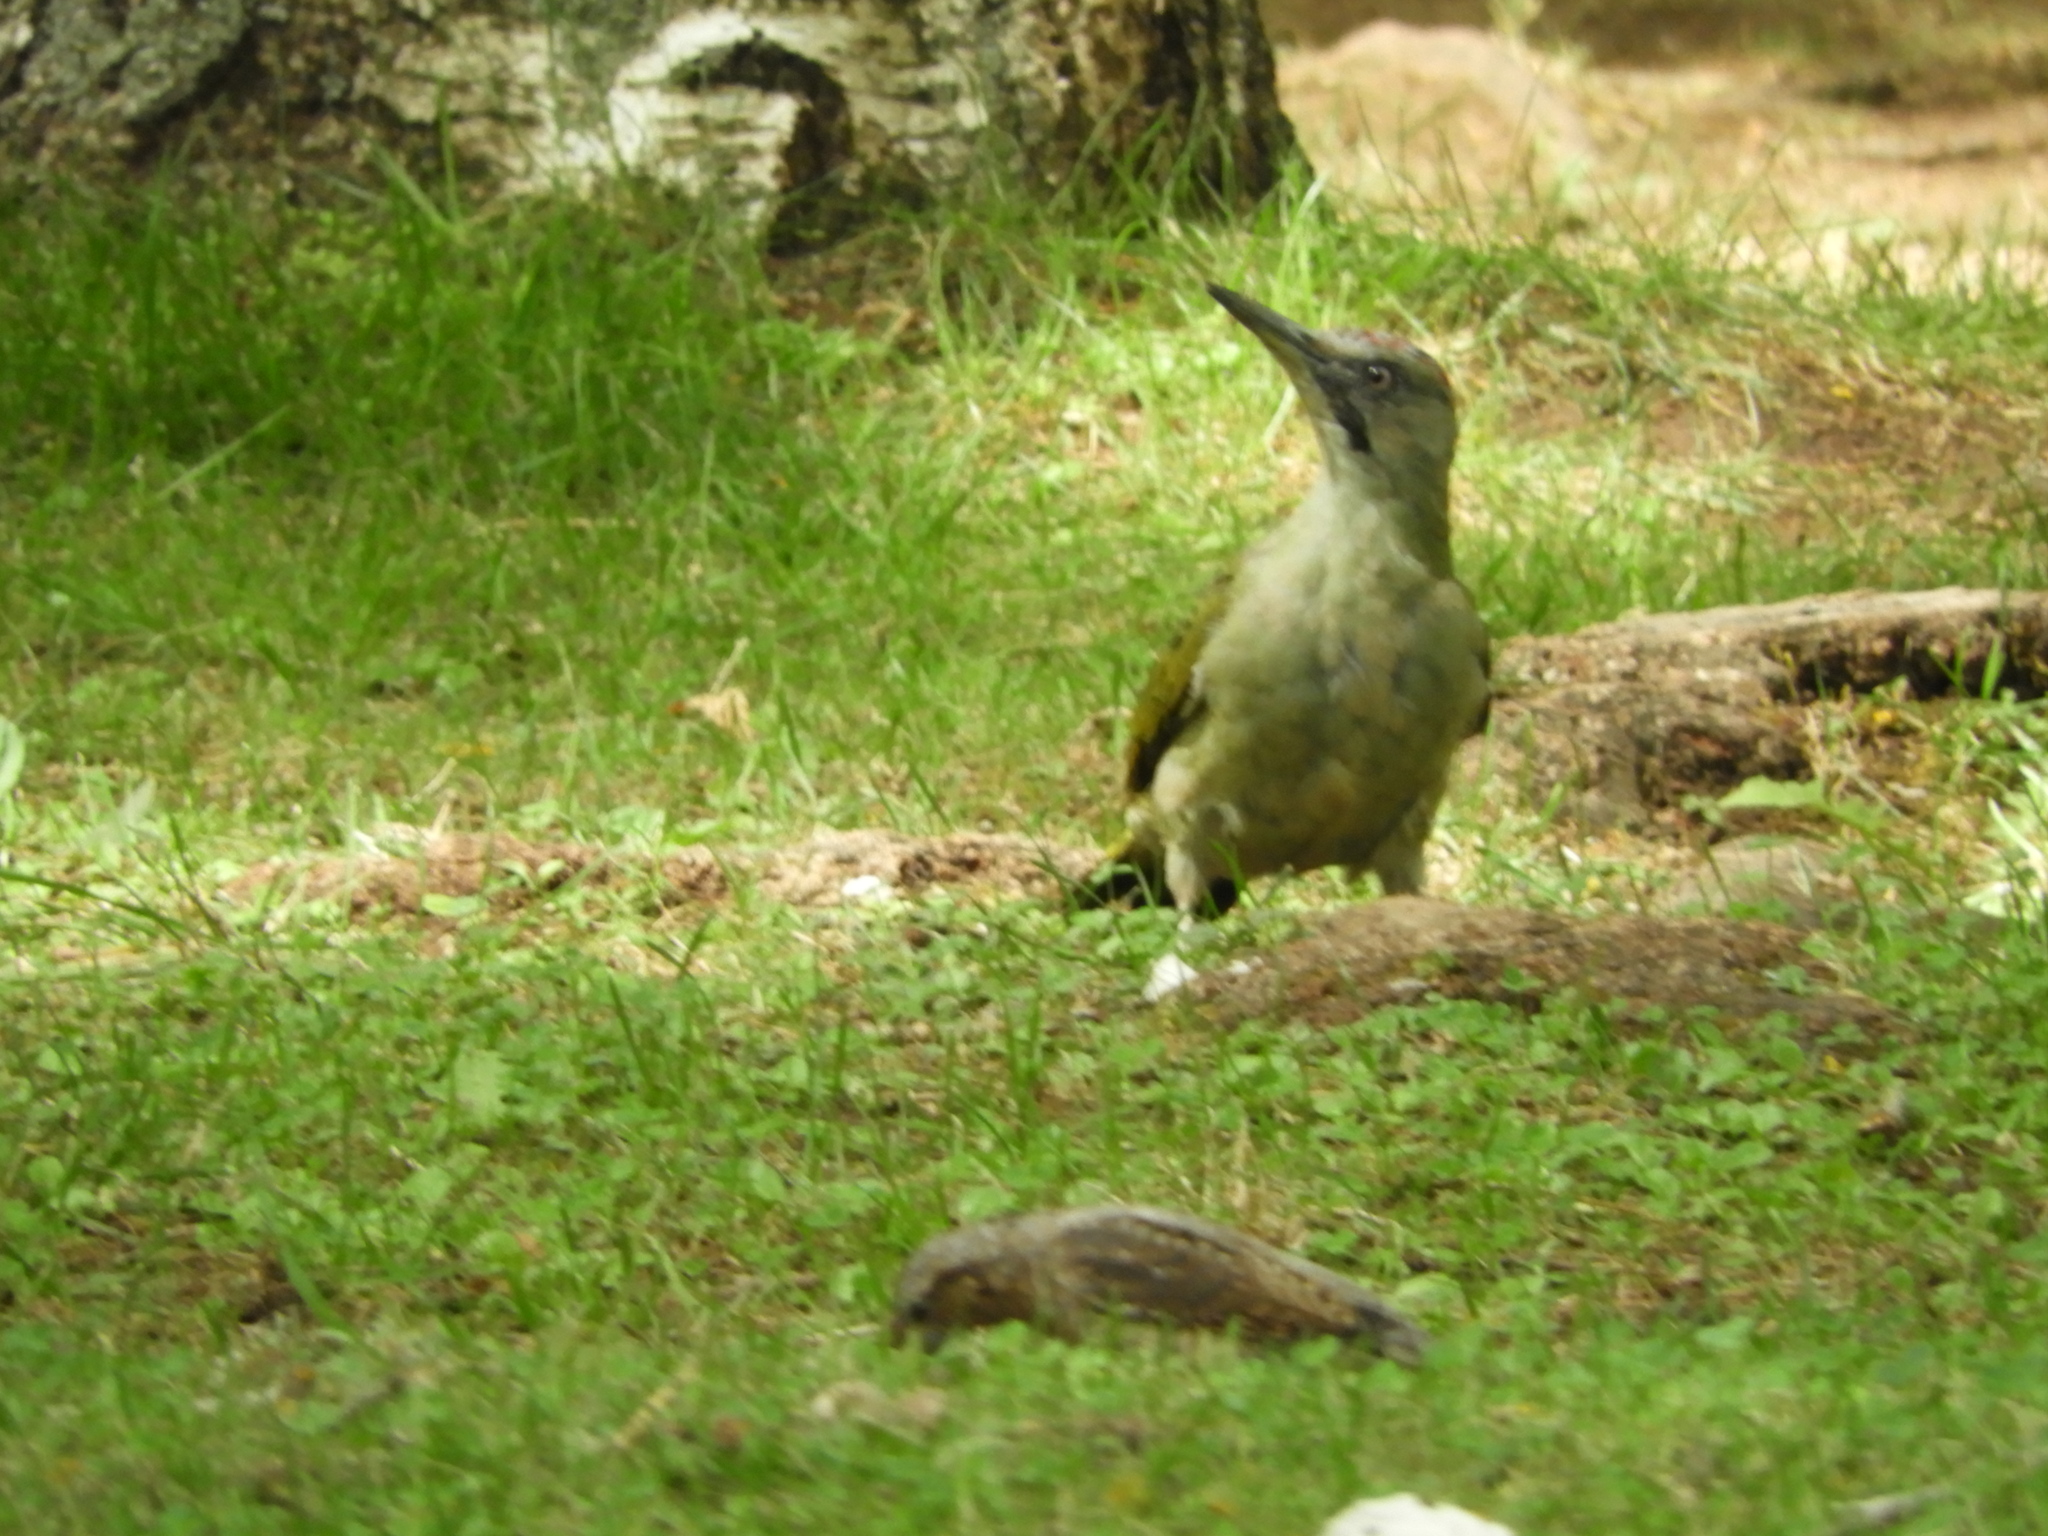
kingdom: Animalia
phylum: Chordata
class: Aves
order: Piciformes
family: Picidae
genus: Picus
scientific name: Picus sharpei
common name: Iberian green woodpecker
